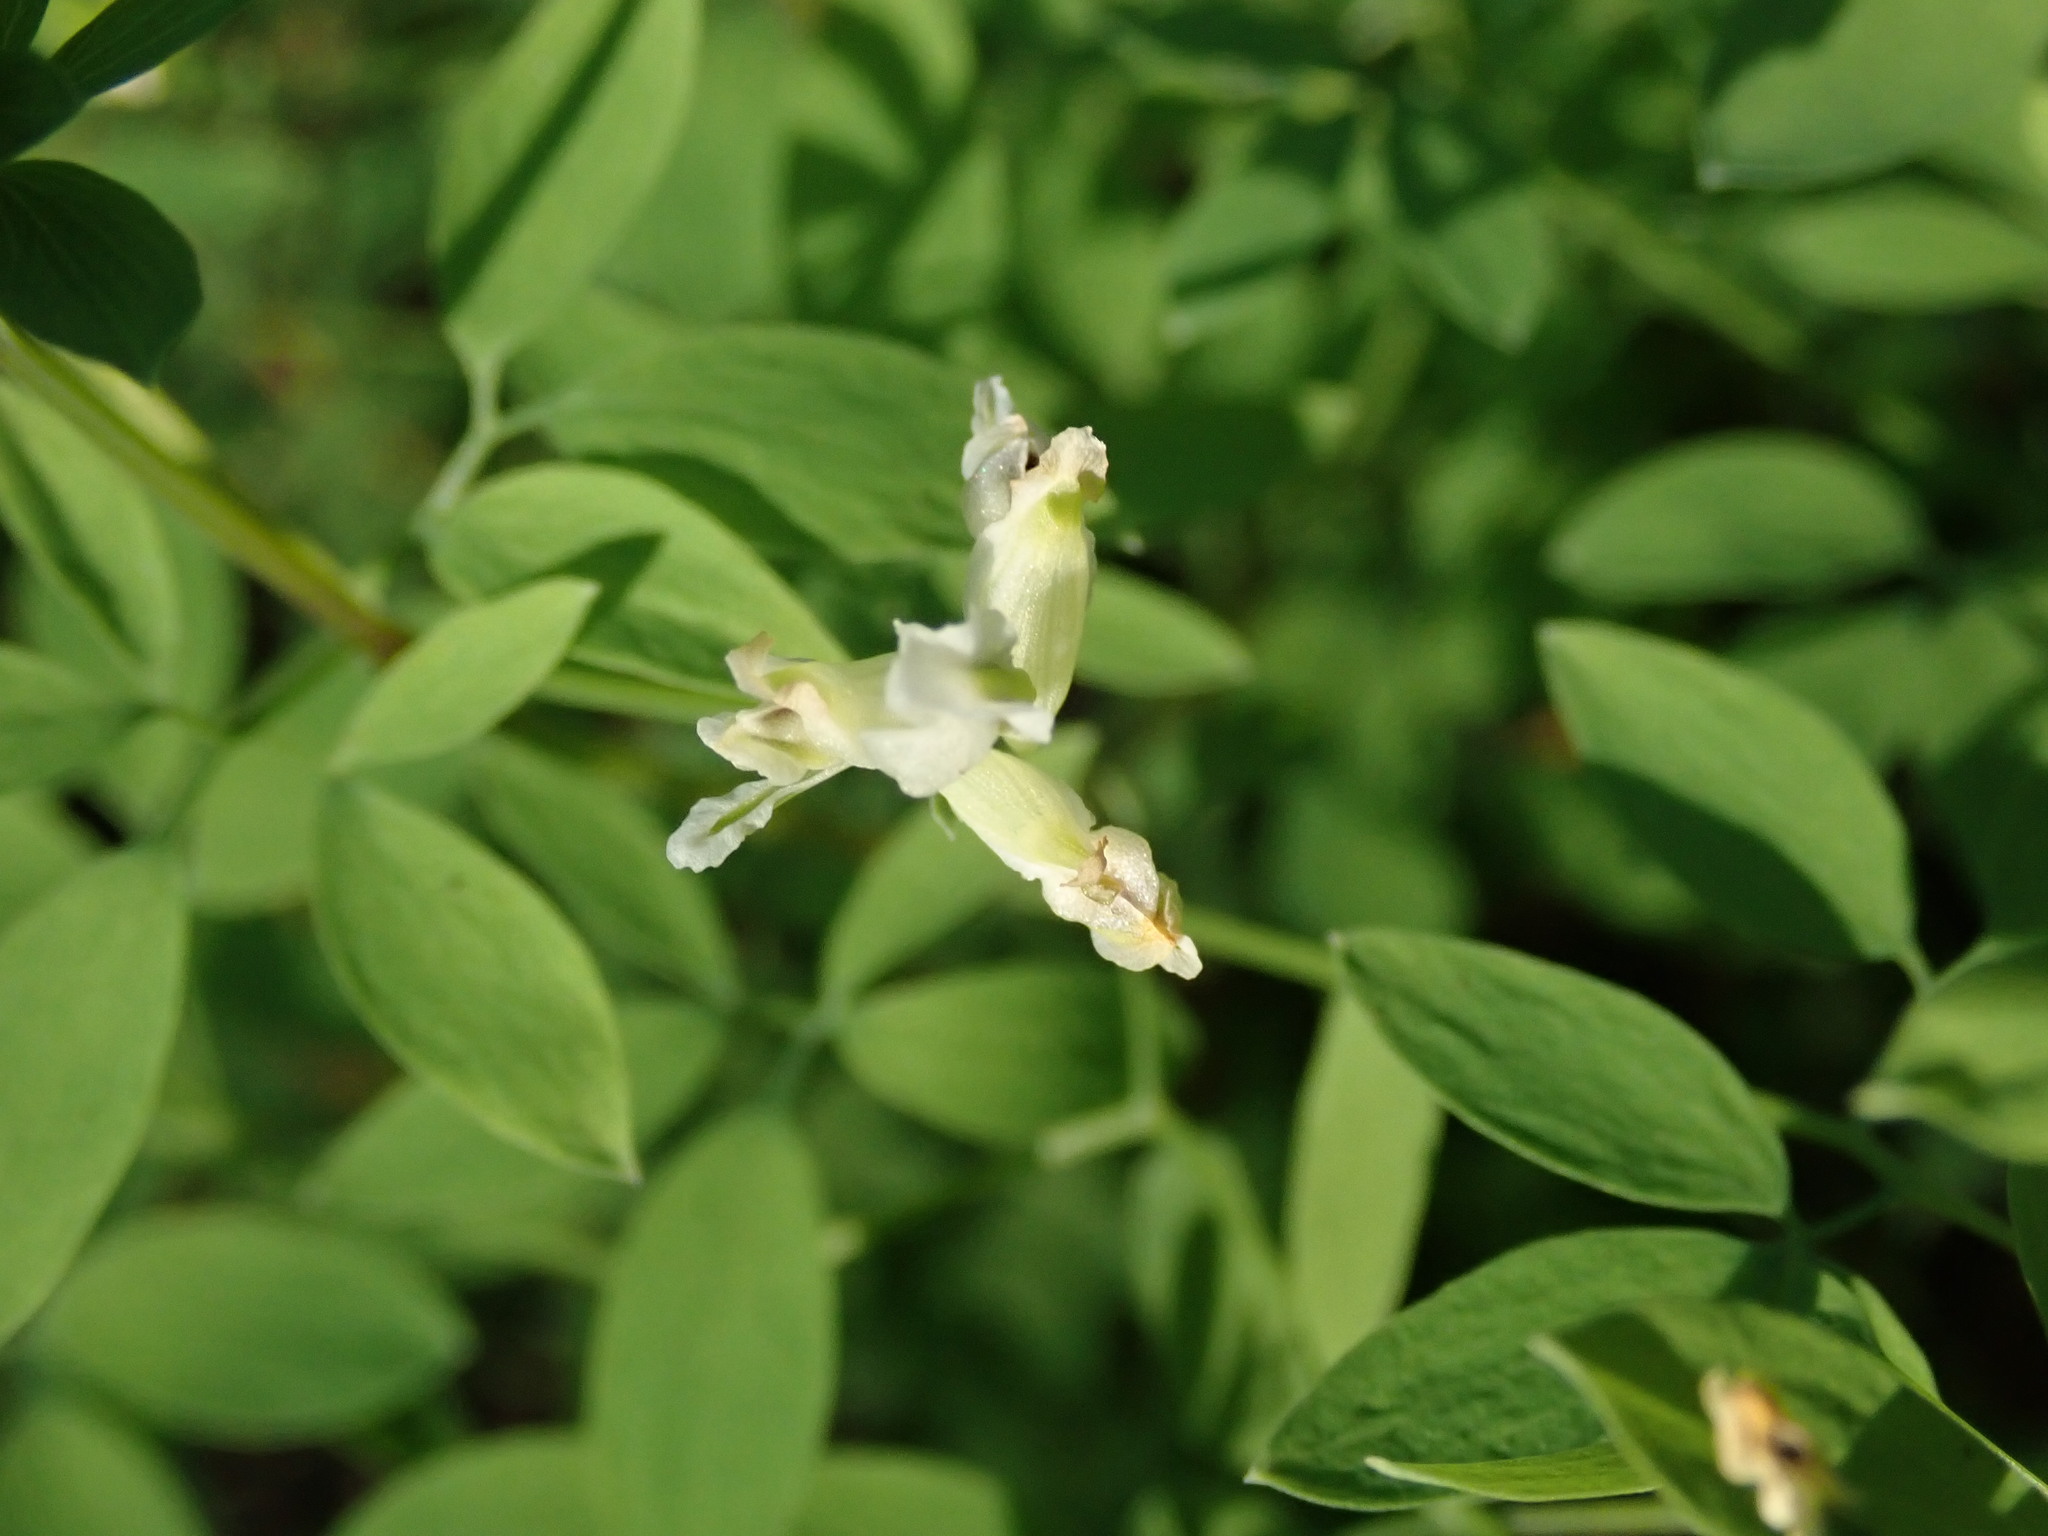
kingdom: Plantae
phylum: Tracheophyta
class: Magnoliopsida
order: Ranunculales
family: Papaveraceae
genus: Ceratocapnos
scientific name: Ceratocapnos claviculata
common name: Climbing corydalis
